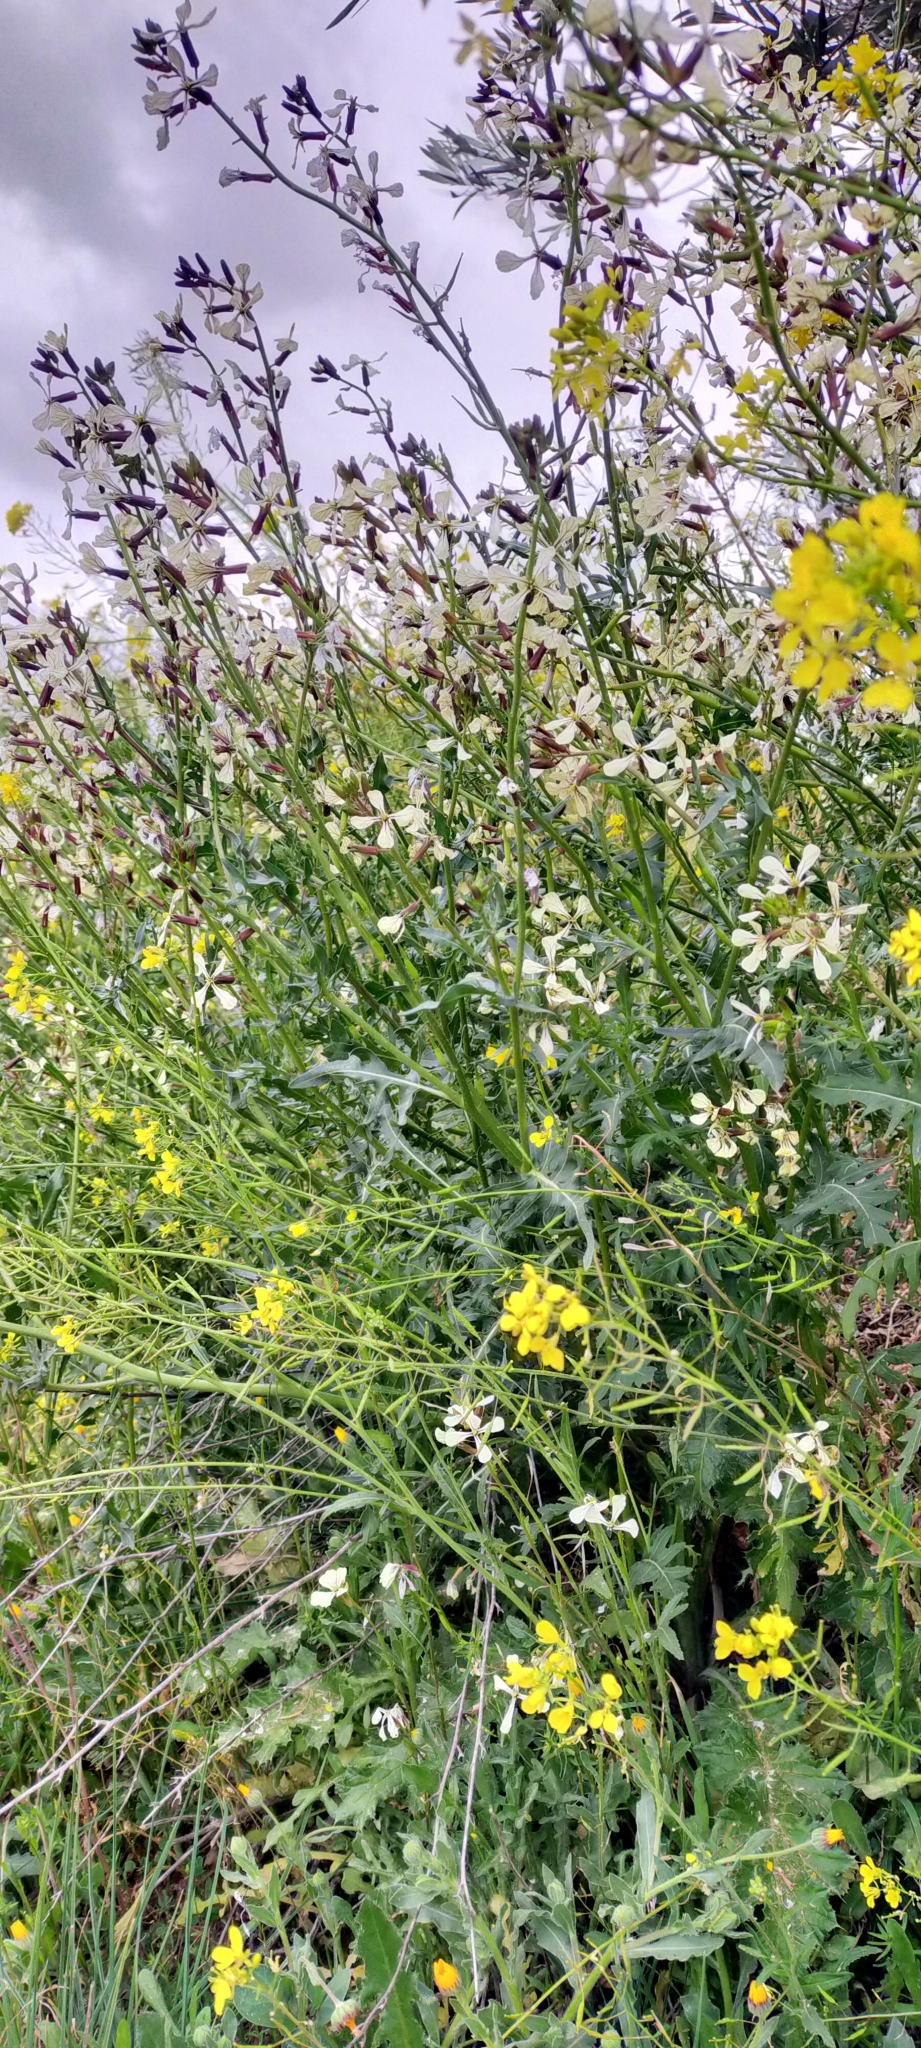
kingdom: Plantae
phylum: Tracheophyta
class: Magnoliopsida
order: Brassicales
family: Brassicaceae
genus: Eruca
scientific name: Eruca vesicaria
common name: Garden rocket
